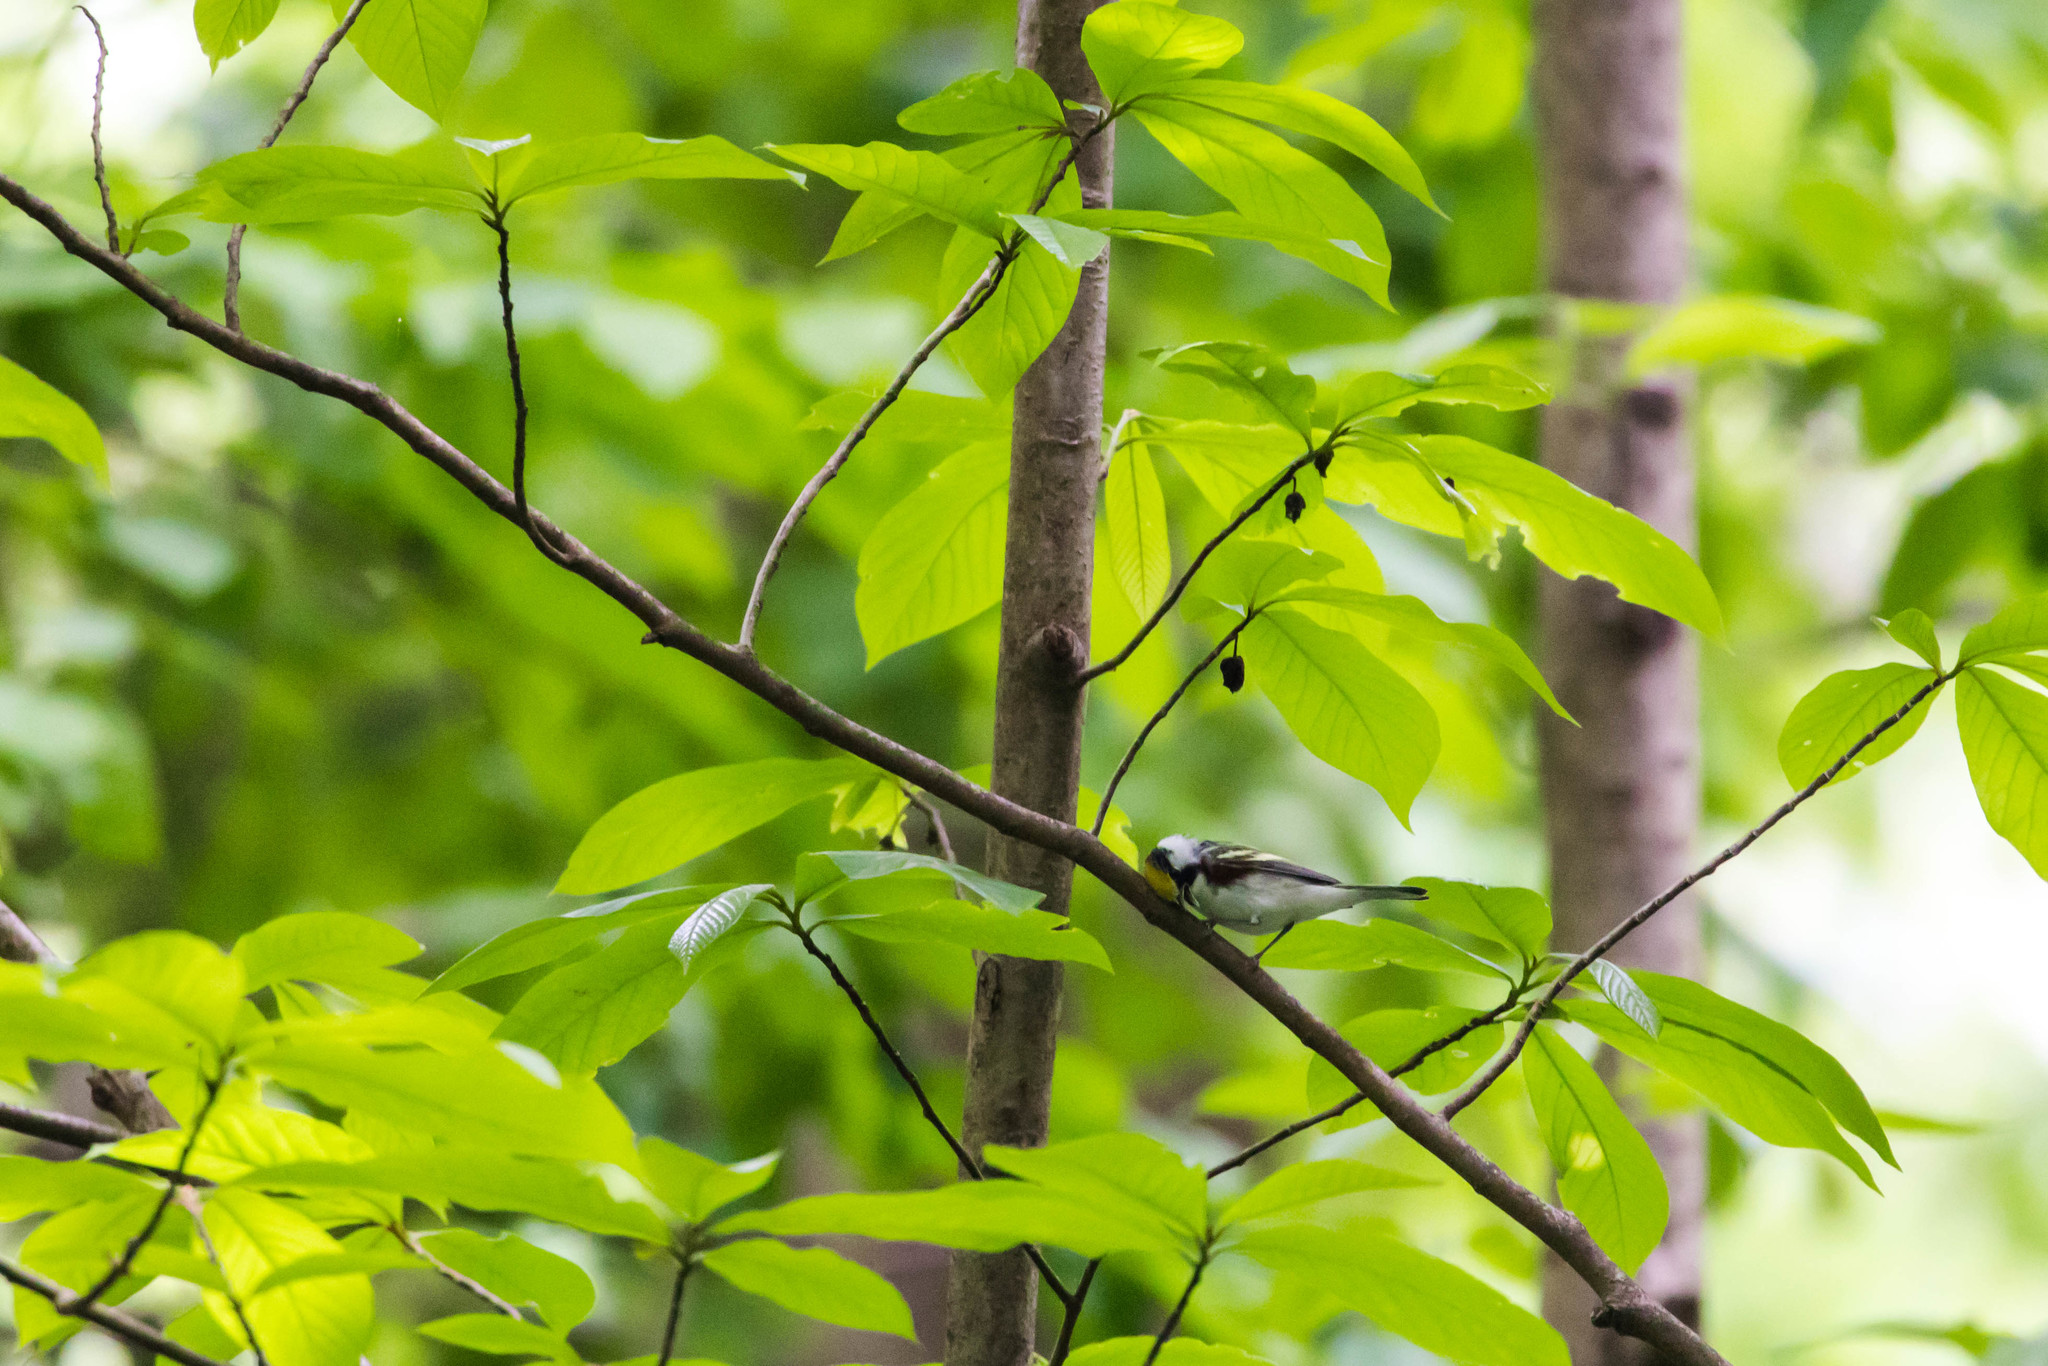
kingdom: Animalia
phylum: Chordata
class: Aves
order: Passeriformes
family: Parulidae
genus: Setophaga
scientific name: Setophaga pensylvanica
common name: Chestnut-sided warbler
